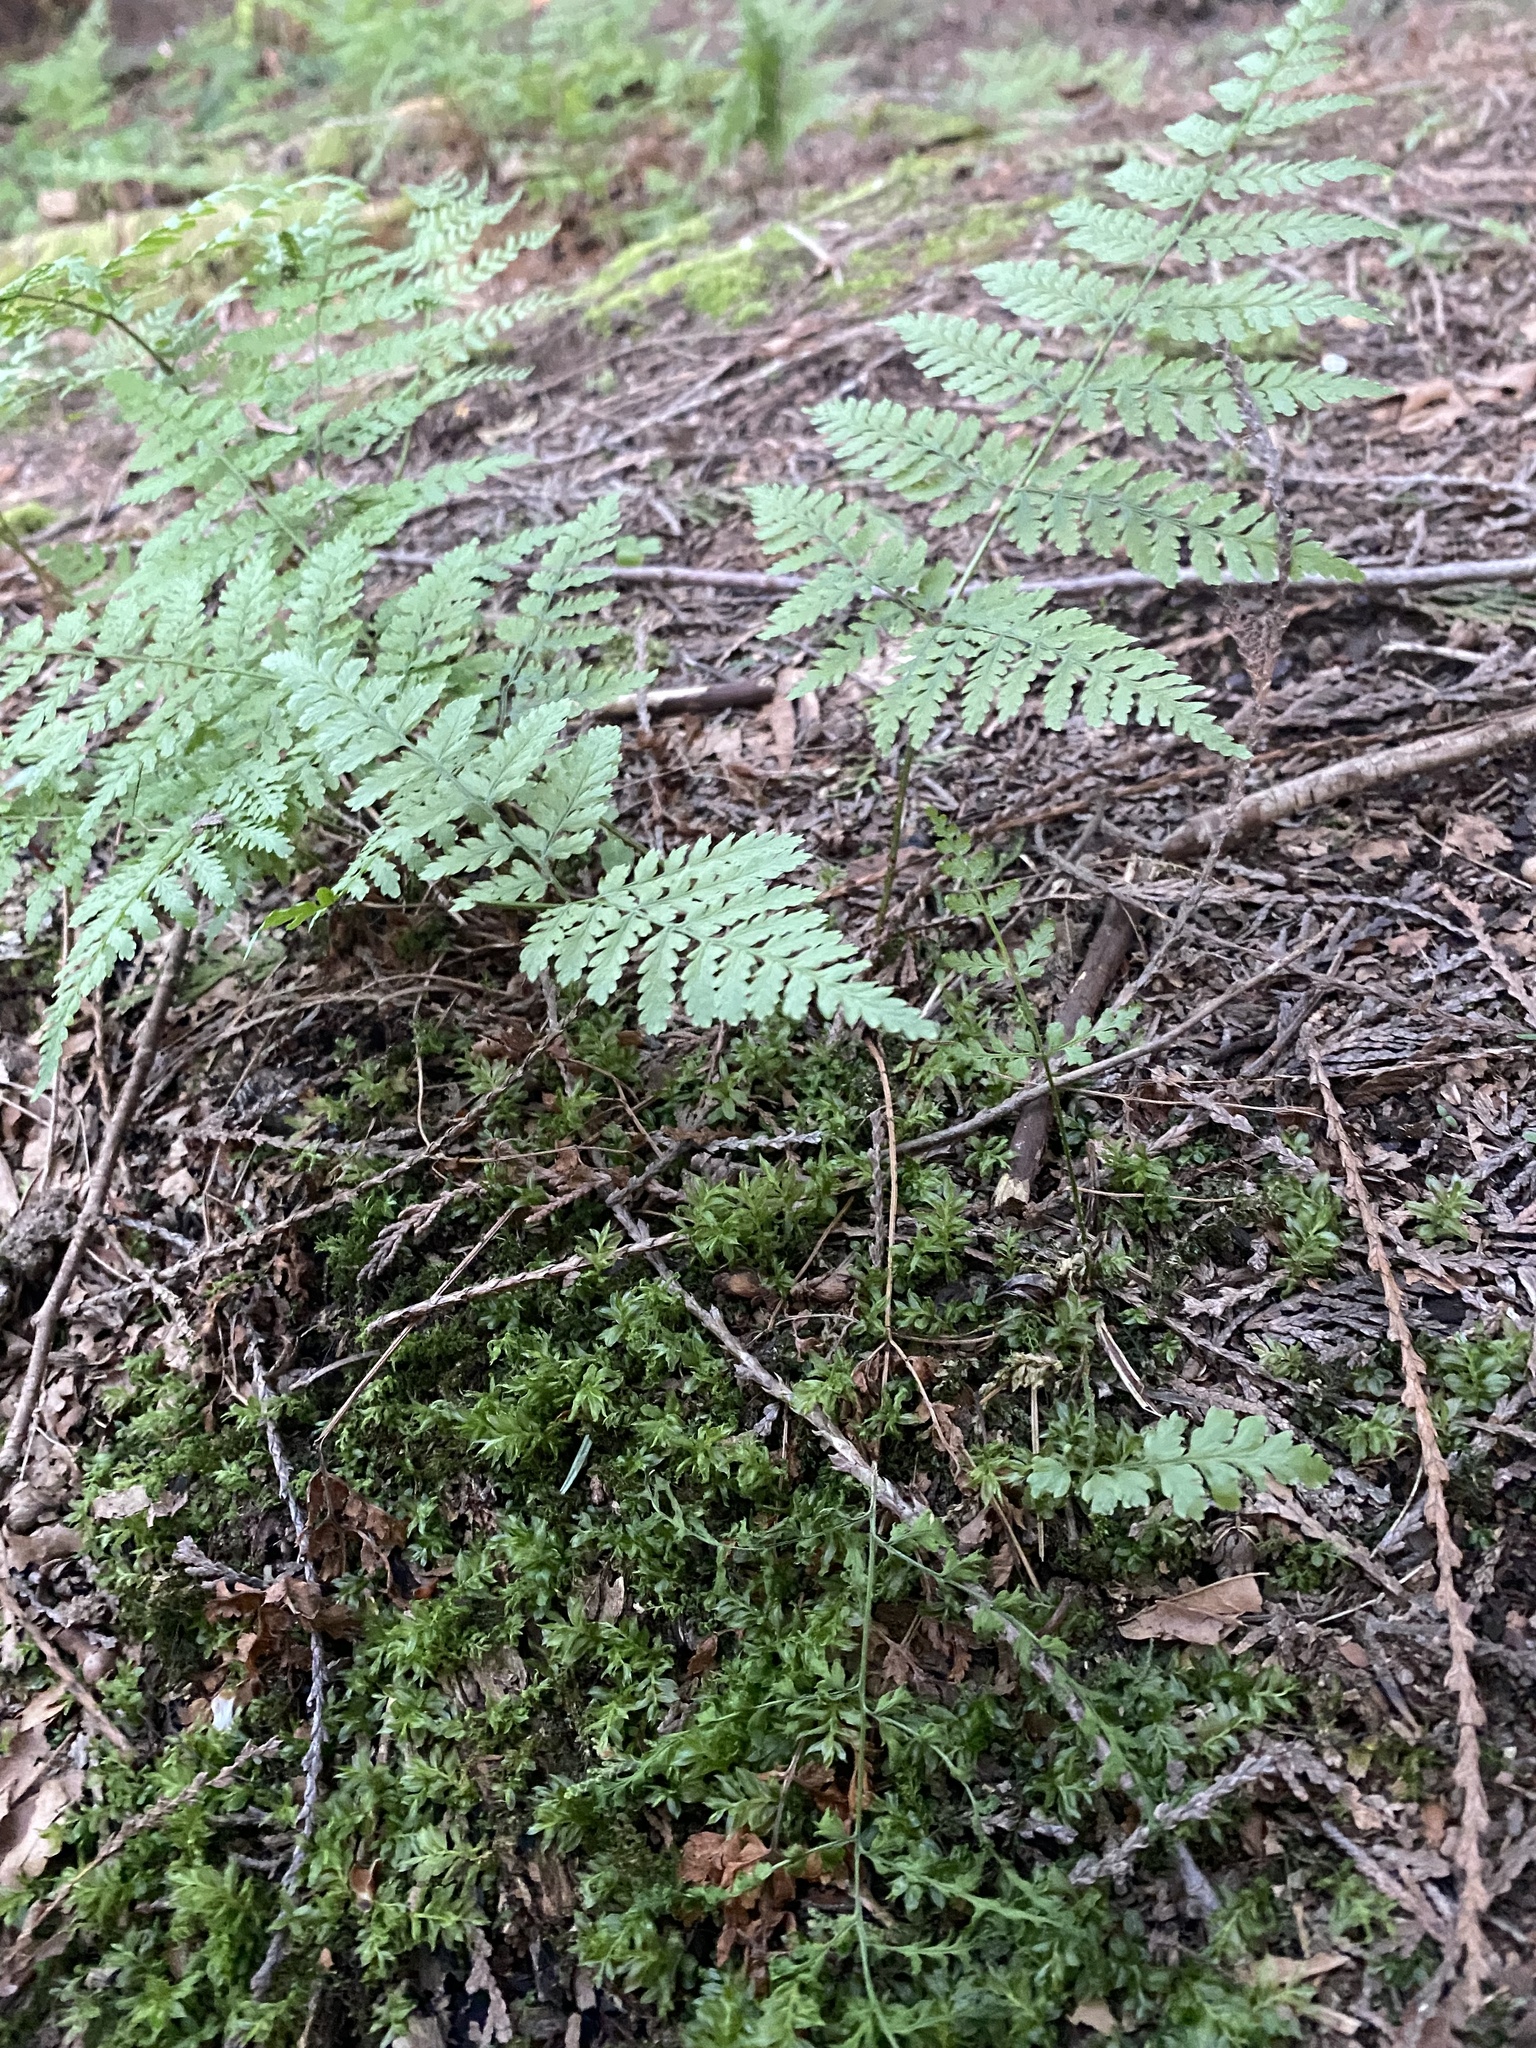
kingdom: Plantae
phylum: Tracheophyta
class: Polypodiopsida
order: Polypodiales
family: Dryopteridaceae
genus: Dryopteris
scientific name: Dryopteris expansa
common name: Northern buckler fern
